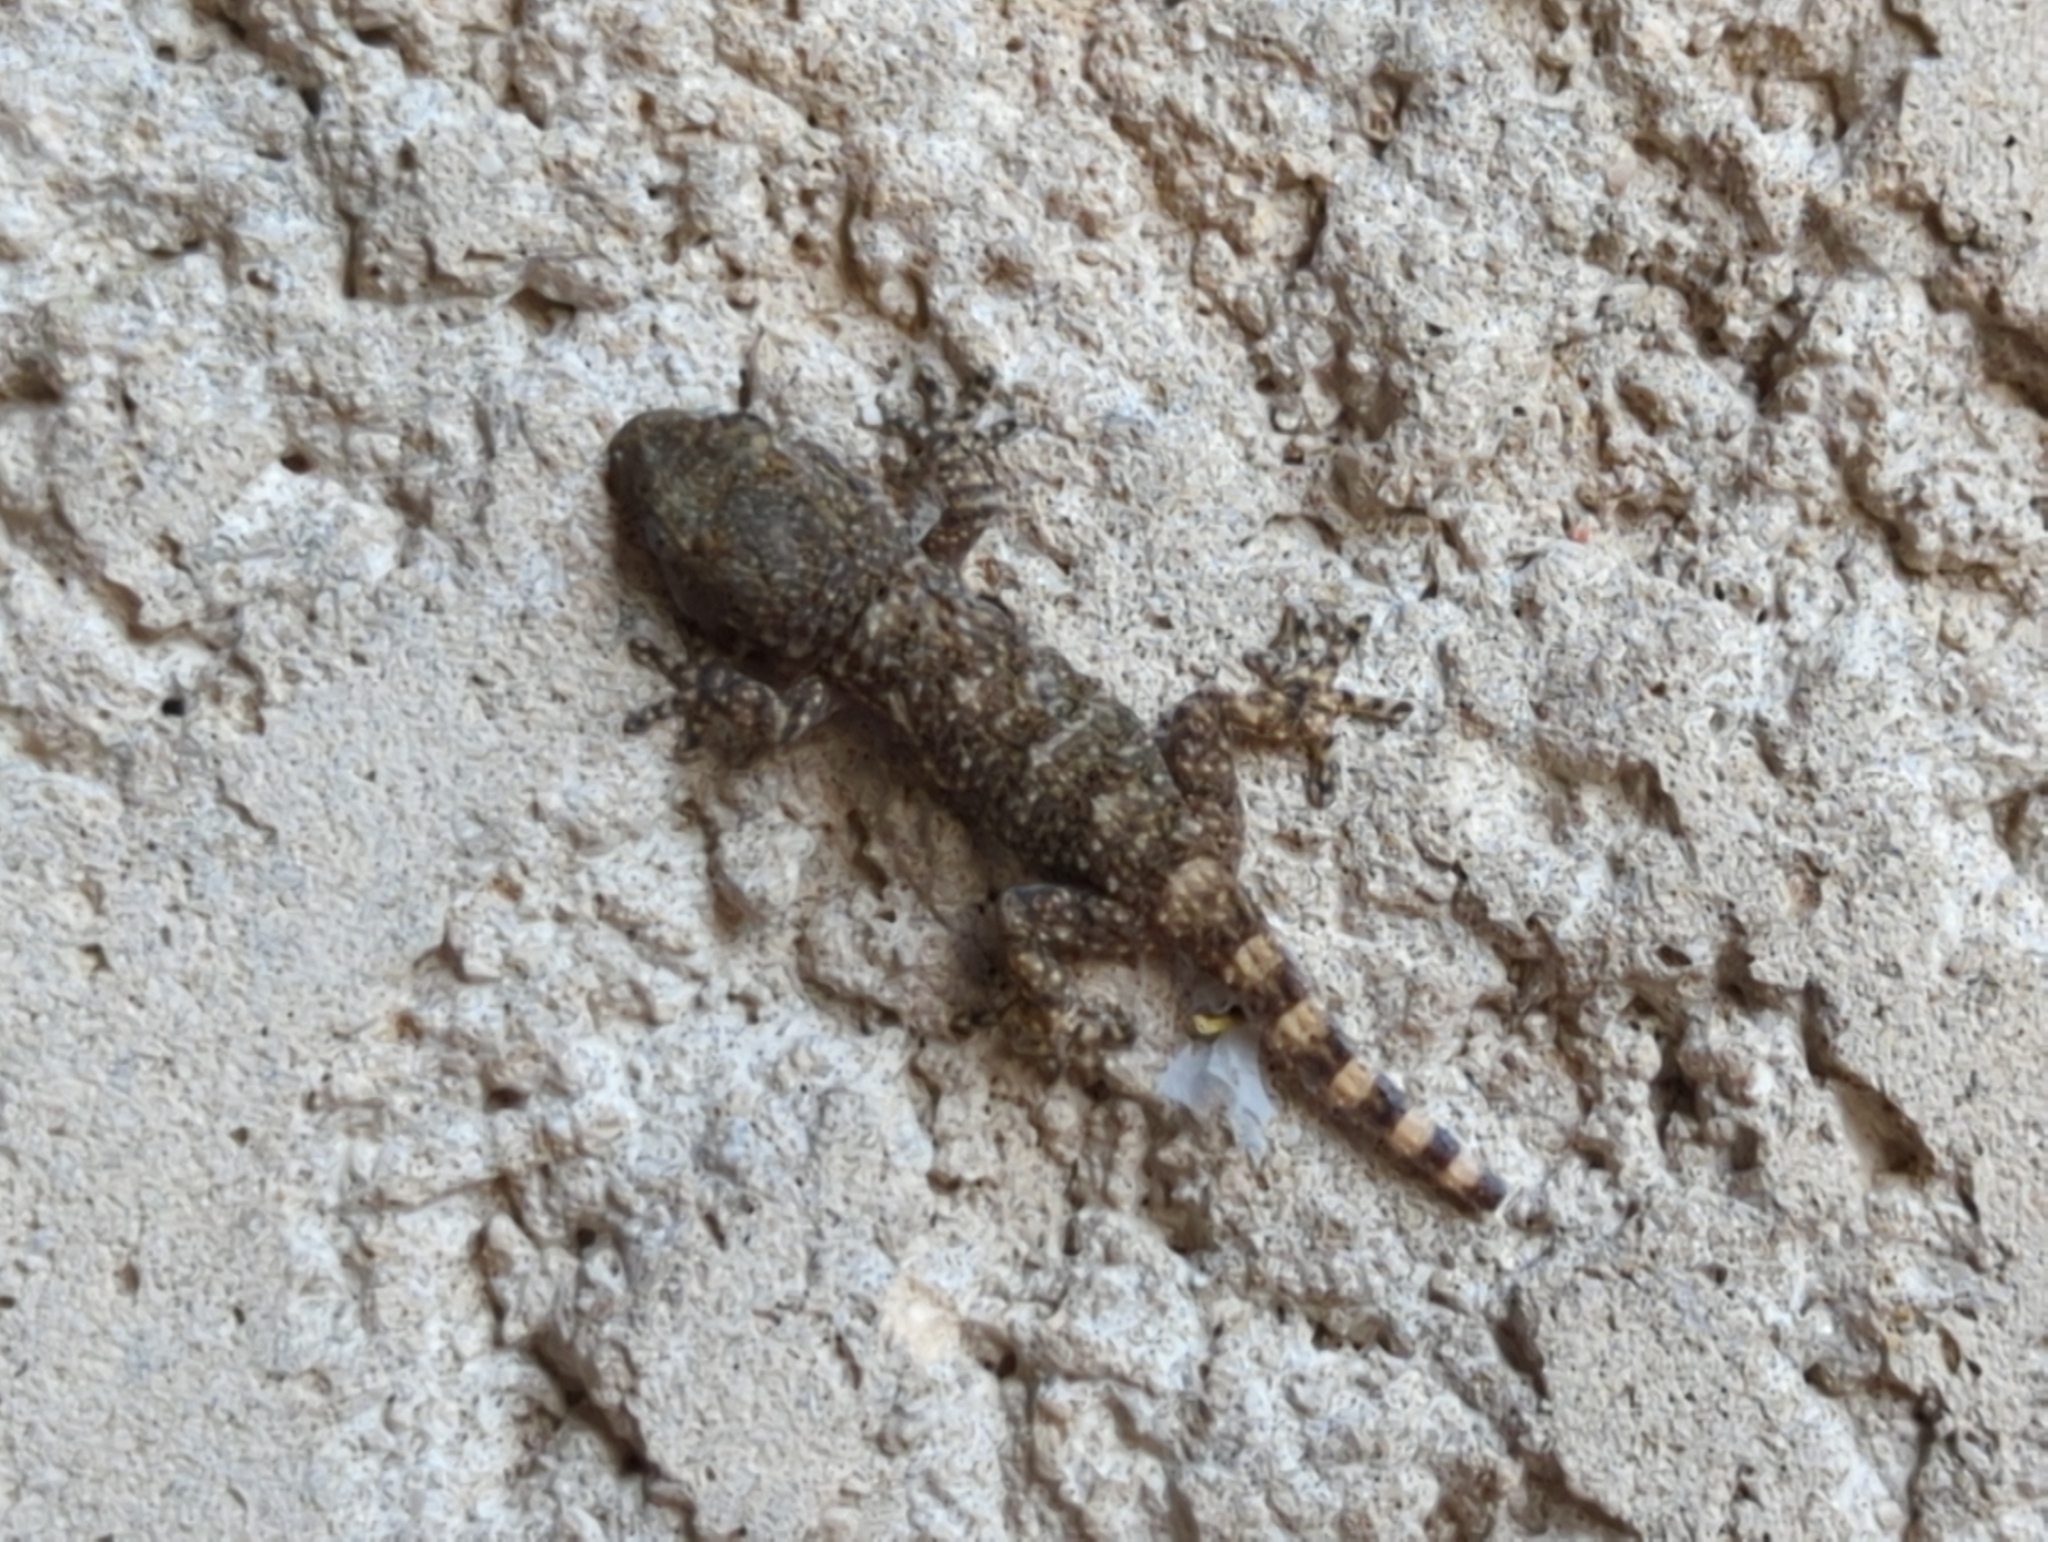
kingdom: Animalia
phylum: Chordata
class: Squamata
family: Phyllodactylidae
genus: Tarentola
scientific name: Tarentola mauritanica
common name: Moorish gecko
